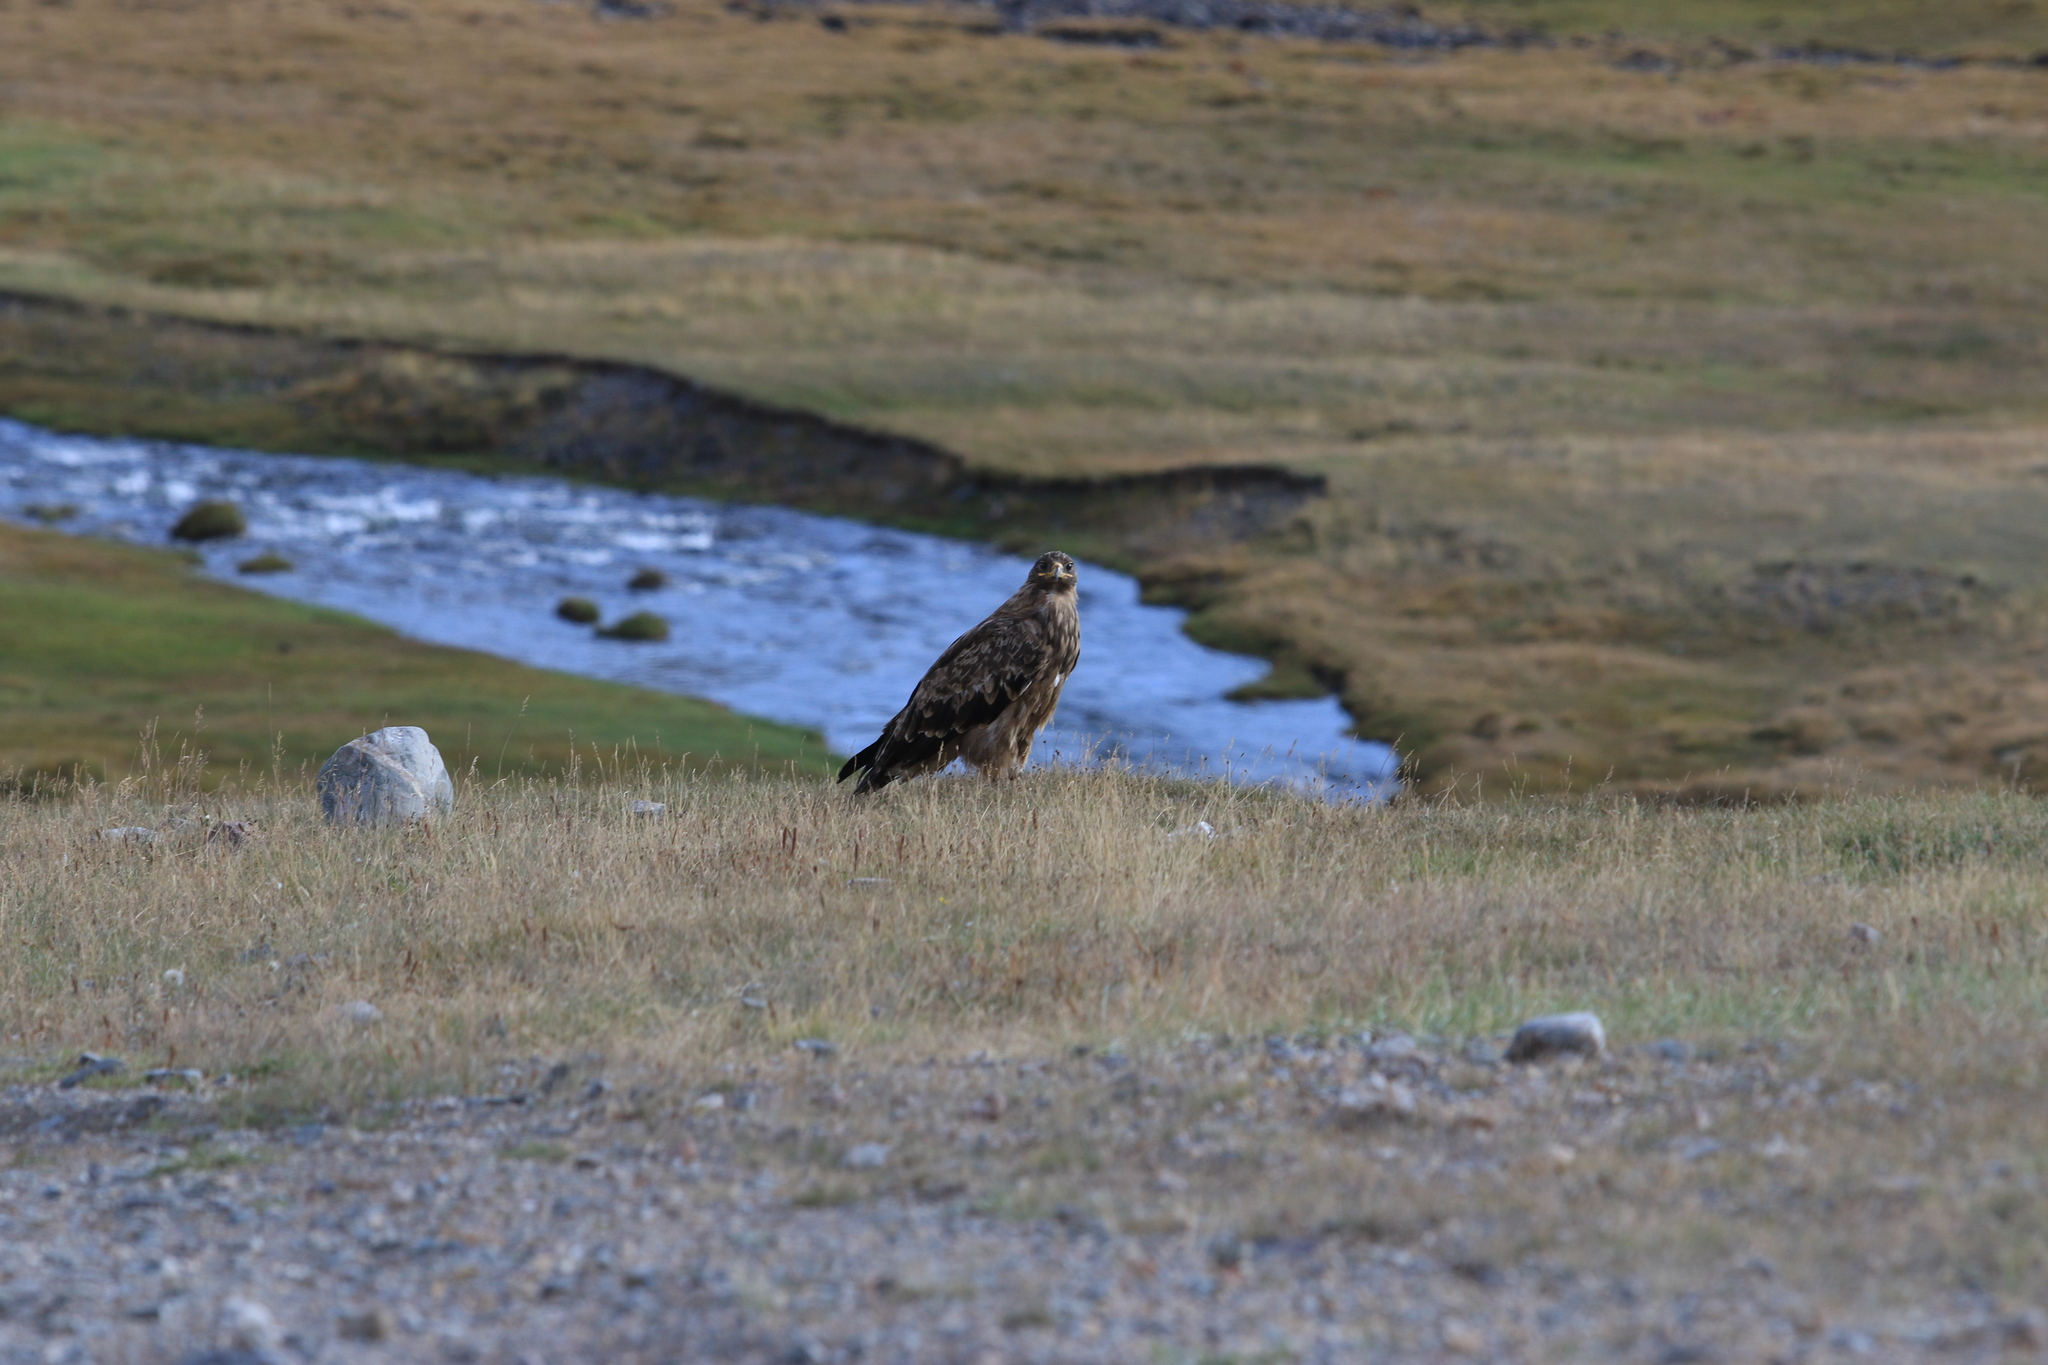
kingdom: Animalia
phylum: Chordata
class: Aves
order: Accipitriformes
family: Accipitridae
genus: Aquila
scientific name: Aquila nipalensis
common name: Steppe eagle
